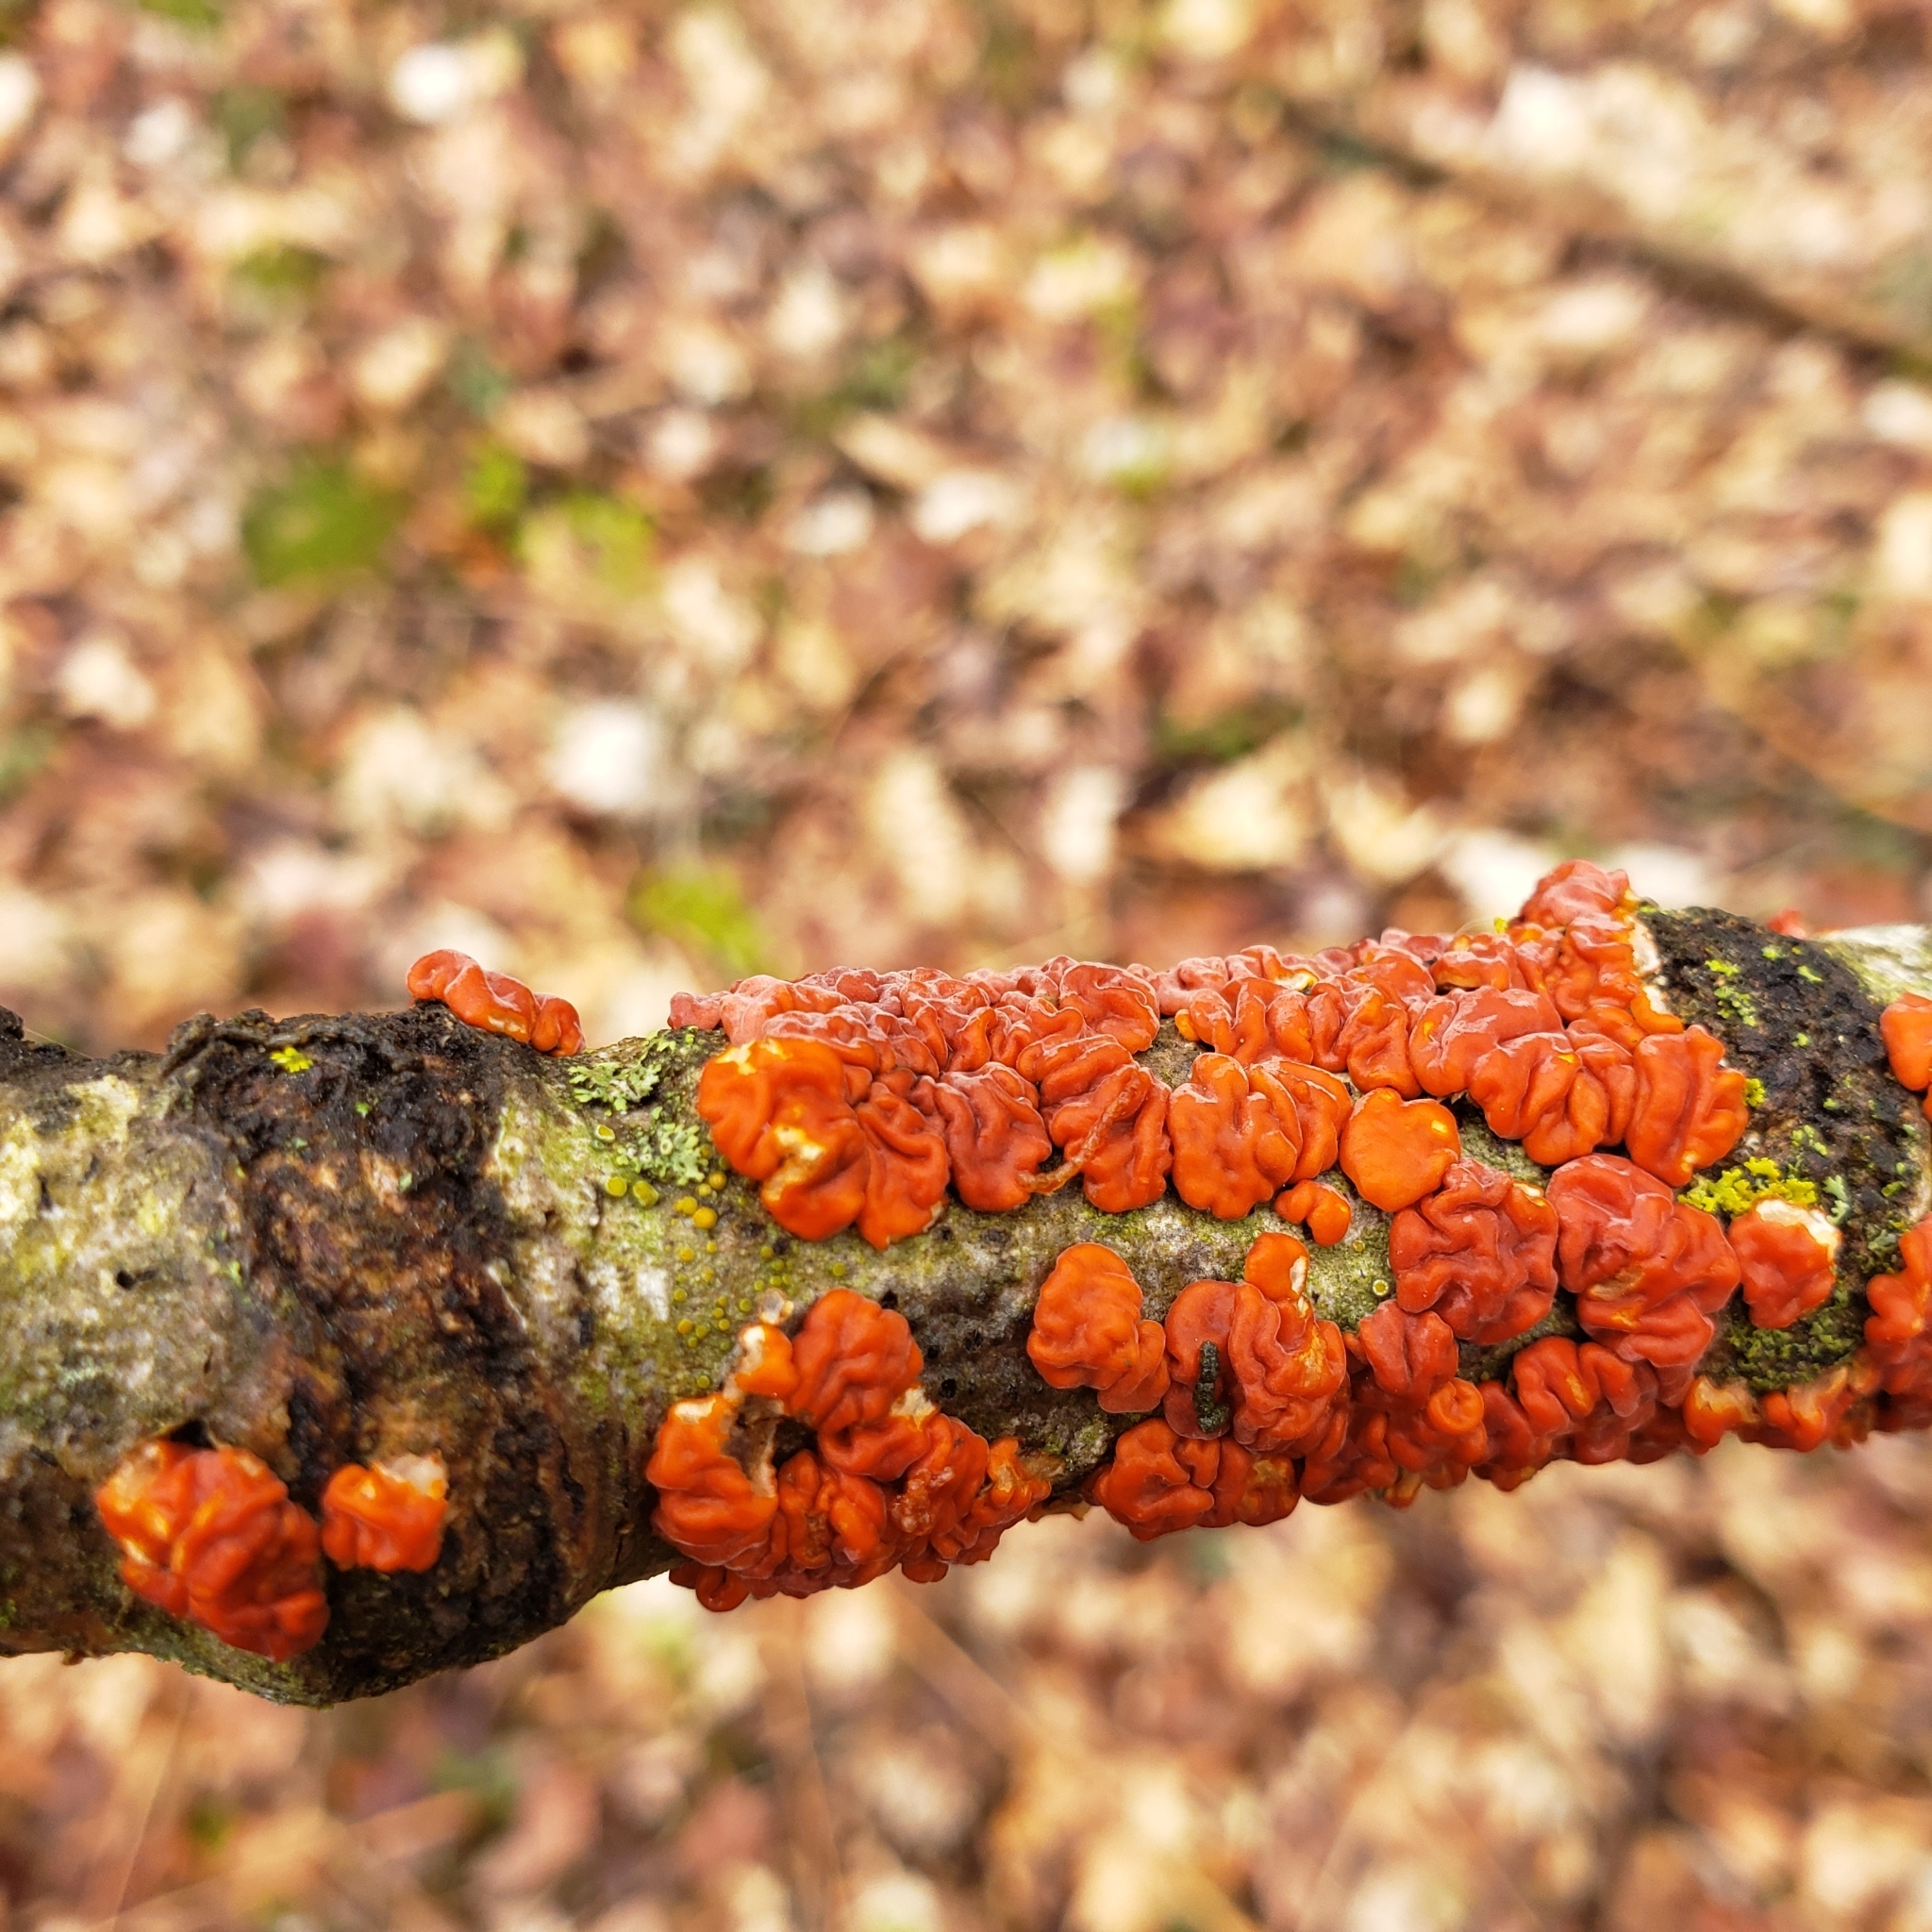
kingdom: Fungi
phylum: Basidiomycota
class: Agaricomycetes
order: Russulales
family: Peniophoraceae
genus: Peniophora
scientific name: Peniophora rufa
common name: Red tree brain fungus
